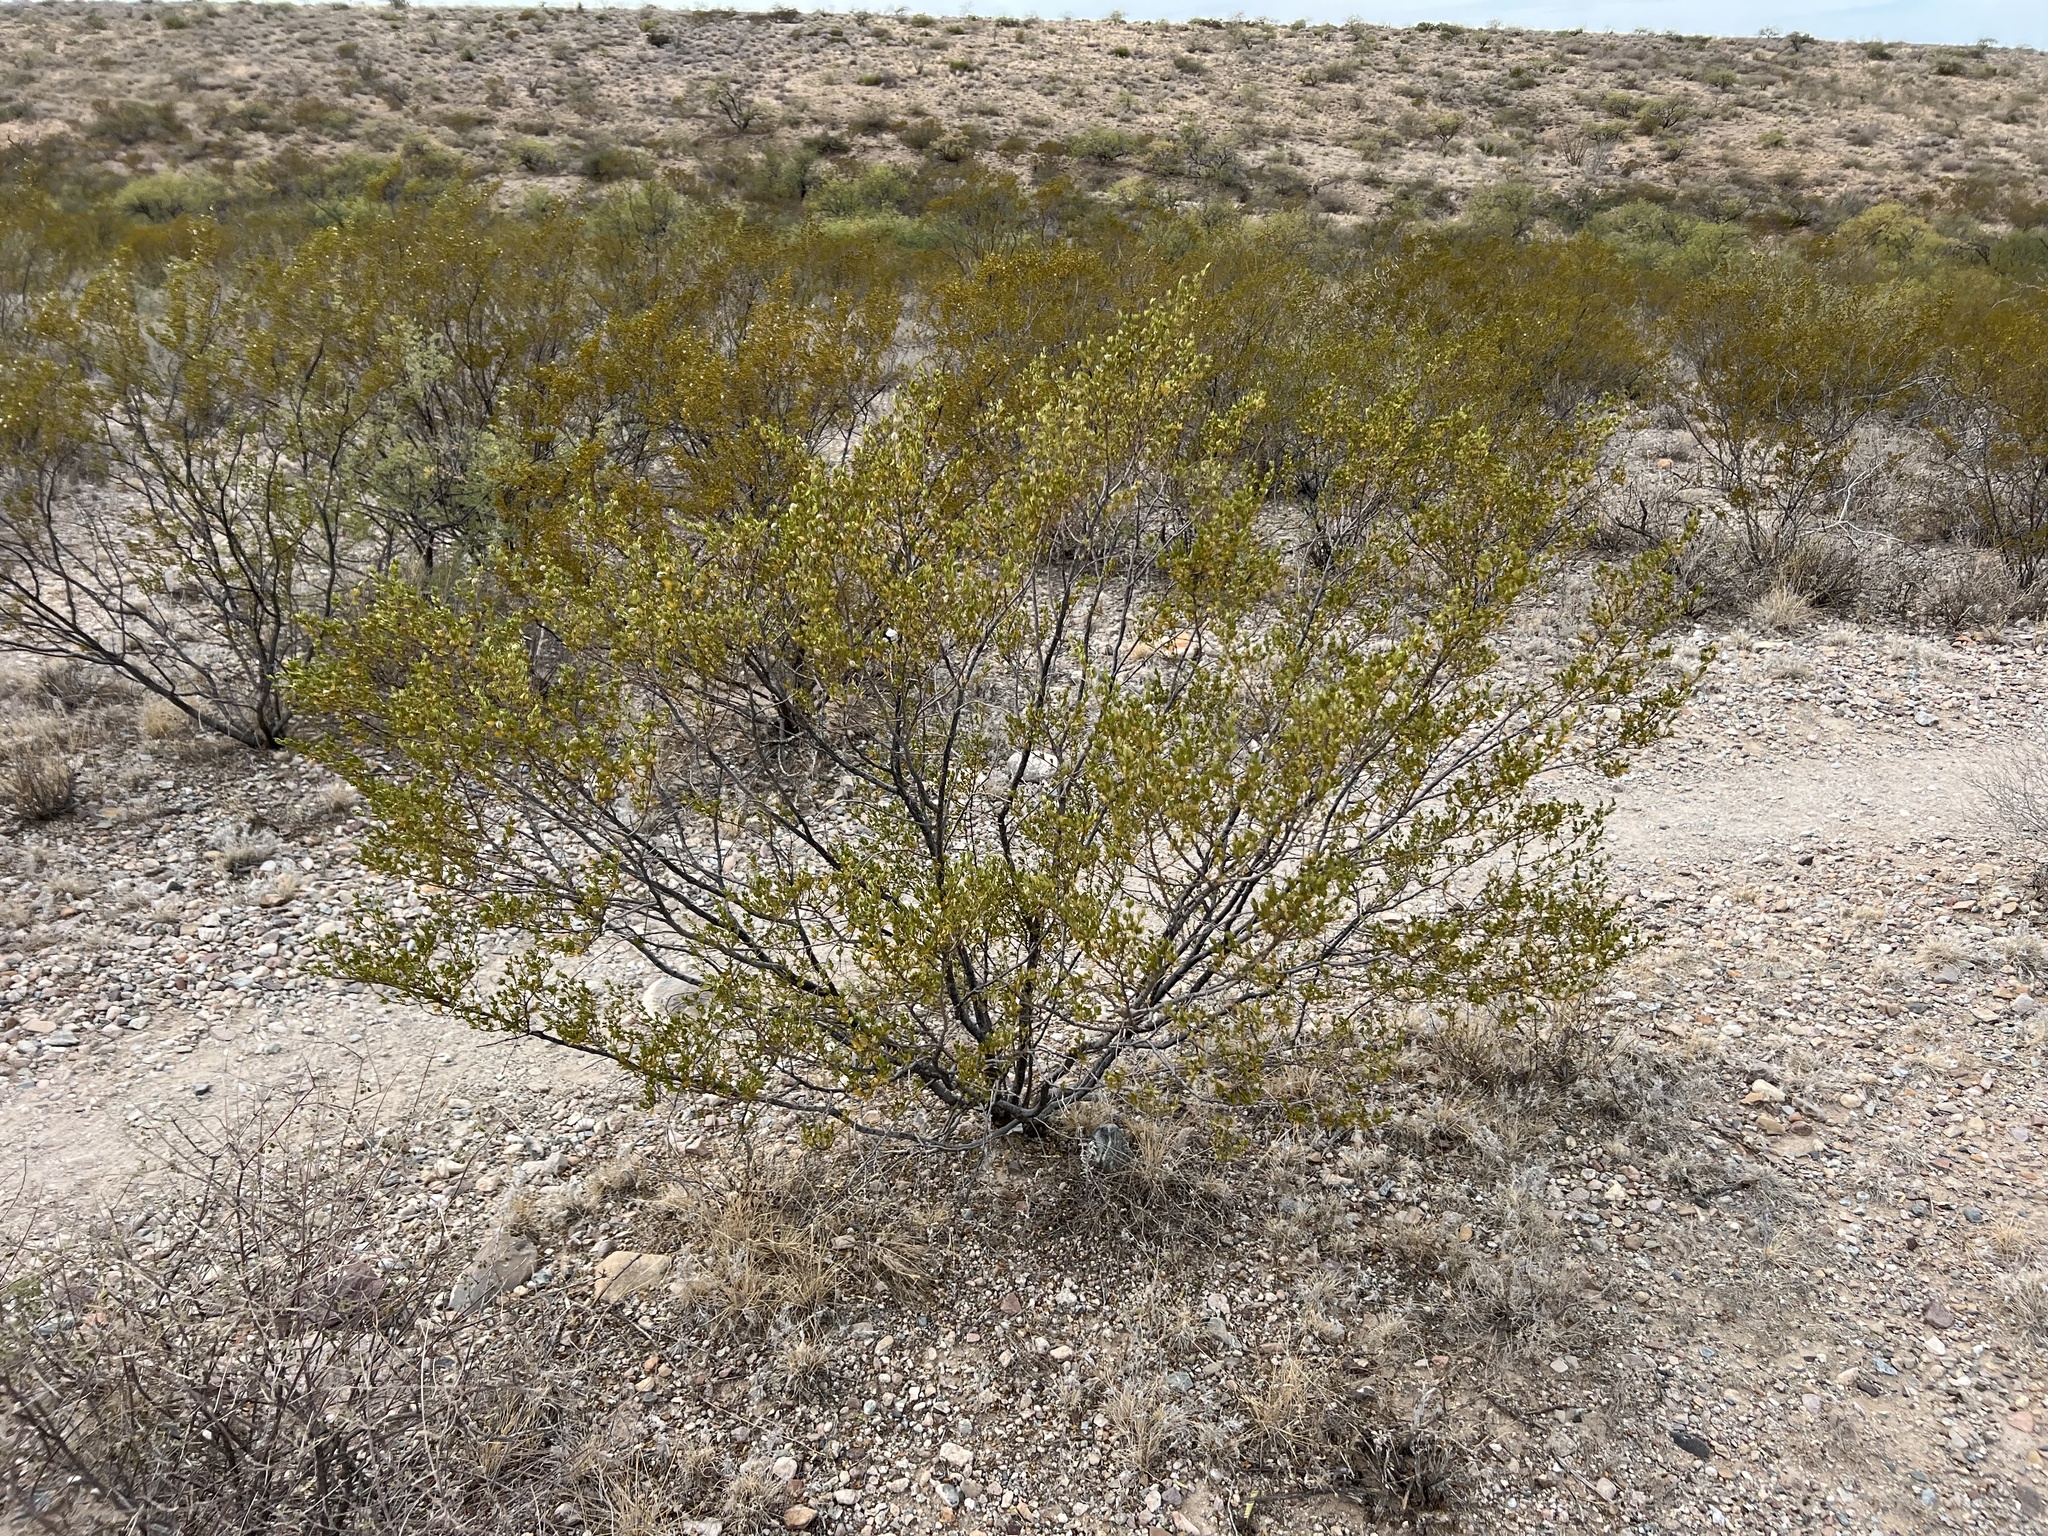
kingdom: Plantae
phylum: Tracheophyta
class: Magnoliopsida
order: Zygophyllales
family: Zygophyllaceae
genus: Larrea
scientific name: Larrea tridentata
